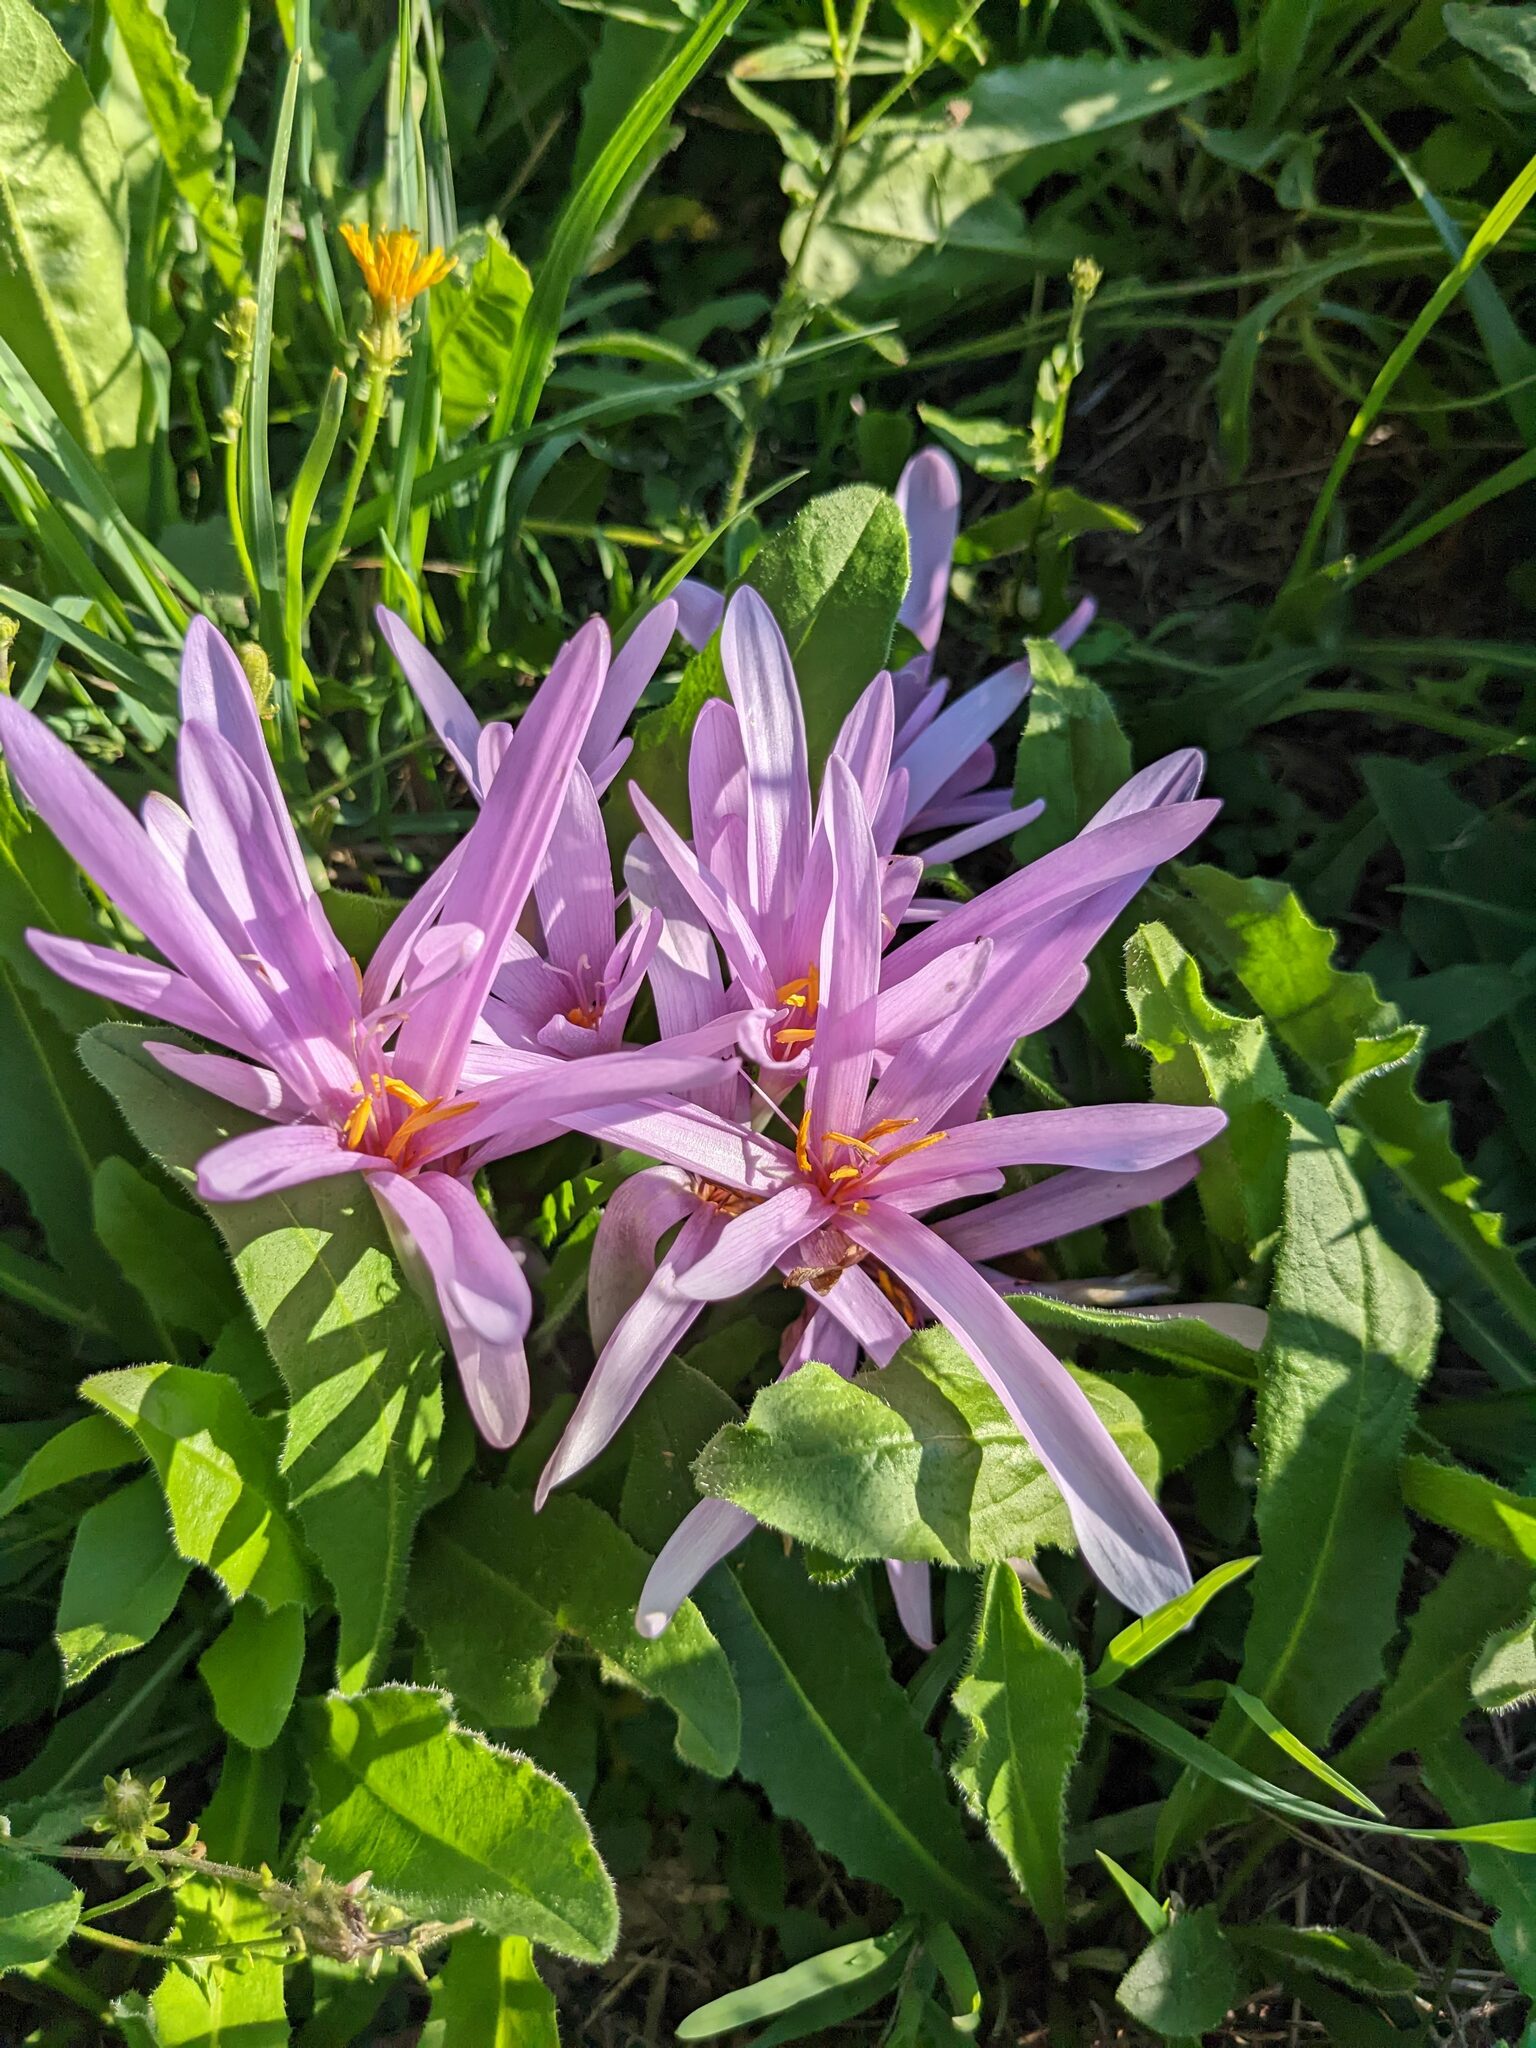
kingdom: Plantae
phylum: Tracheophyta
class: Liliopsida
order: Liliales
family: Colchicaceae
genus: Colchicum
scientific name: Colchicum autumnale
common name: Autumn crocus
